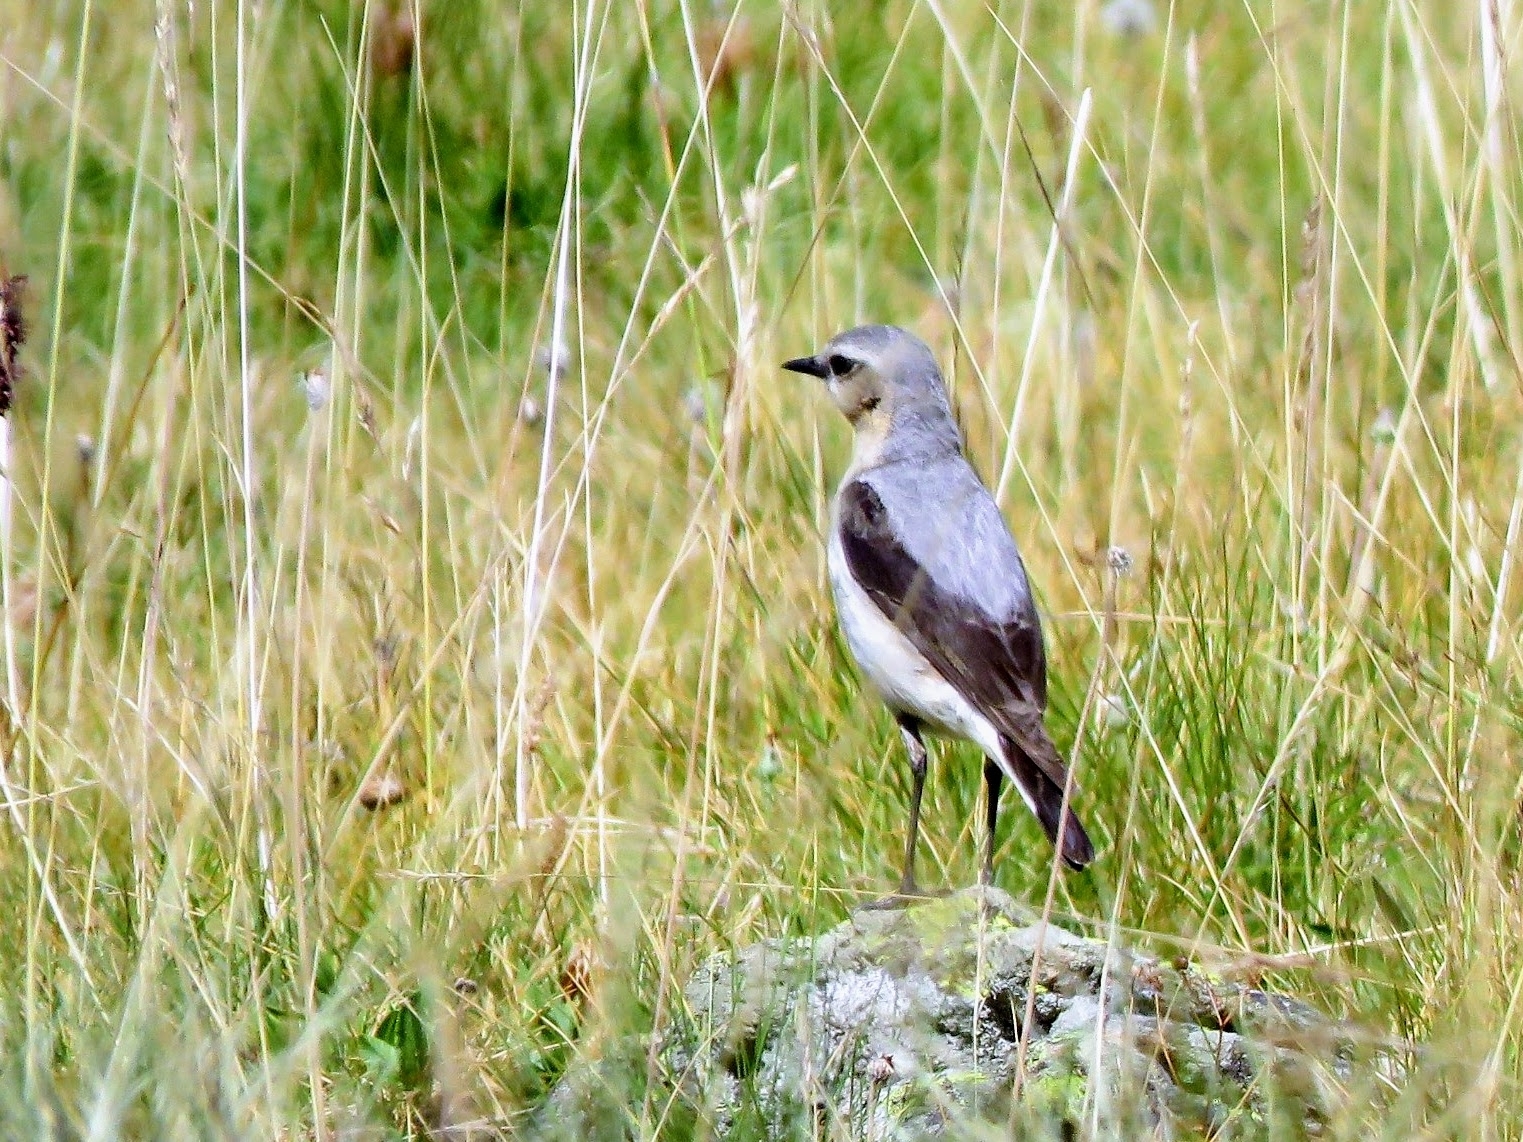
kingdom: Animalia
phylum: Chordata
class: Aves
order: Passeriformes
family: Muscicapidae
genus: Oenanthe
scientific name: Oenanthe oenanthe
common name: Northern wheatear
